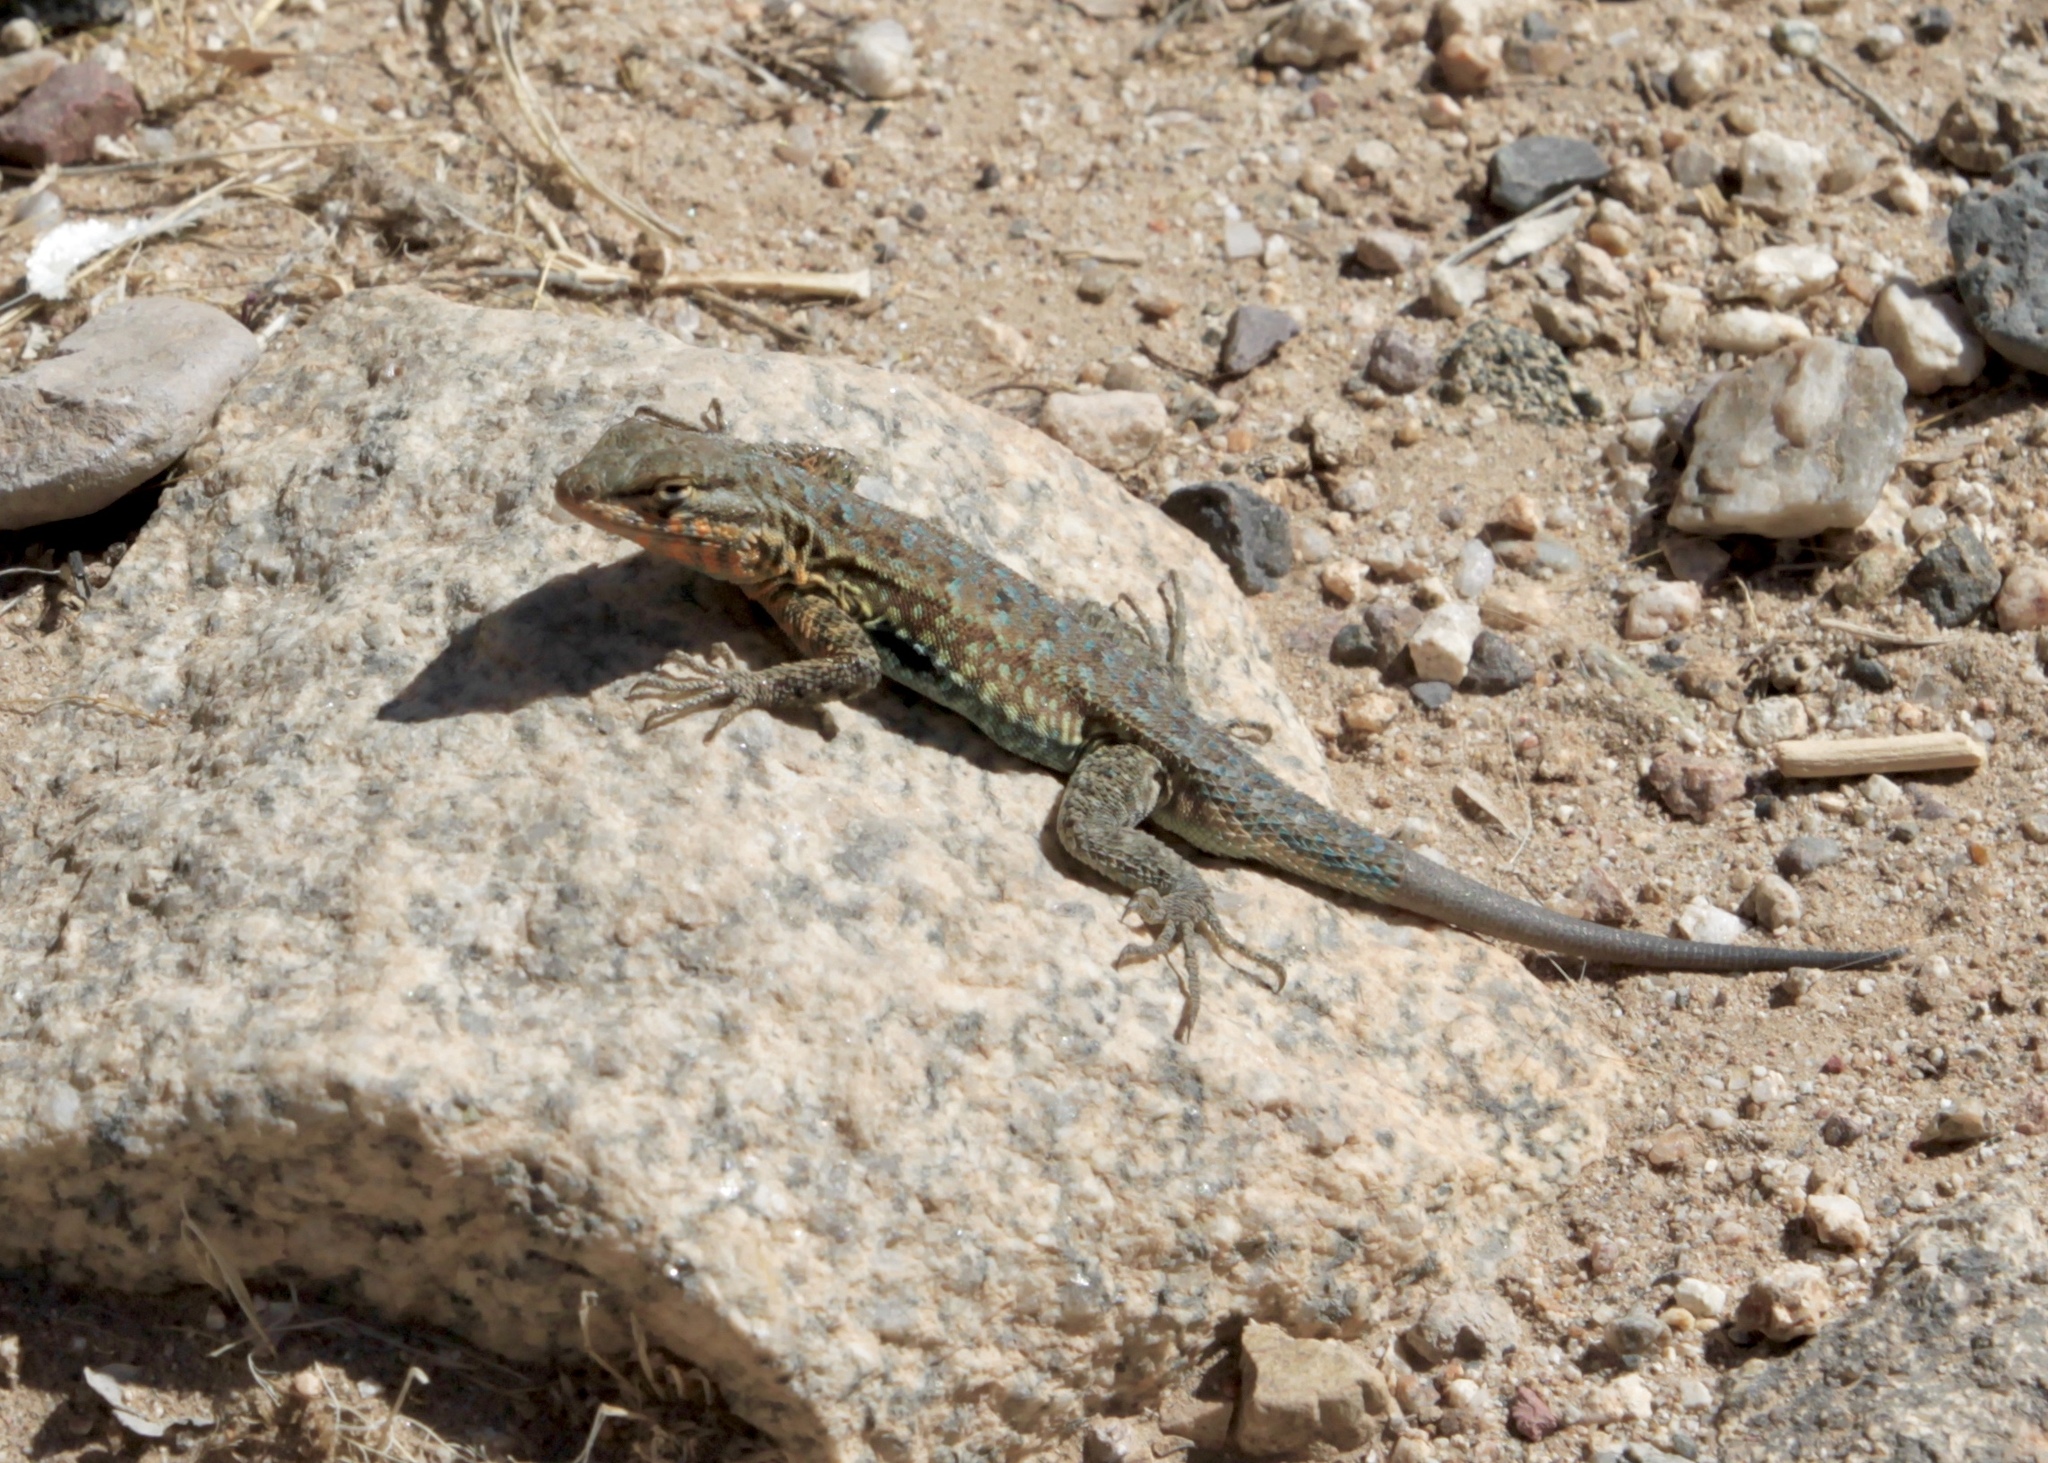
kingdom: Animalia
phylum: Chordata
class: Squamata
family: Phrynosomatidae
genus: Uta
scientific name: Uta stansburiana
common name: Side-blotched lizard
